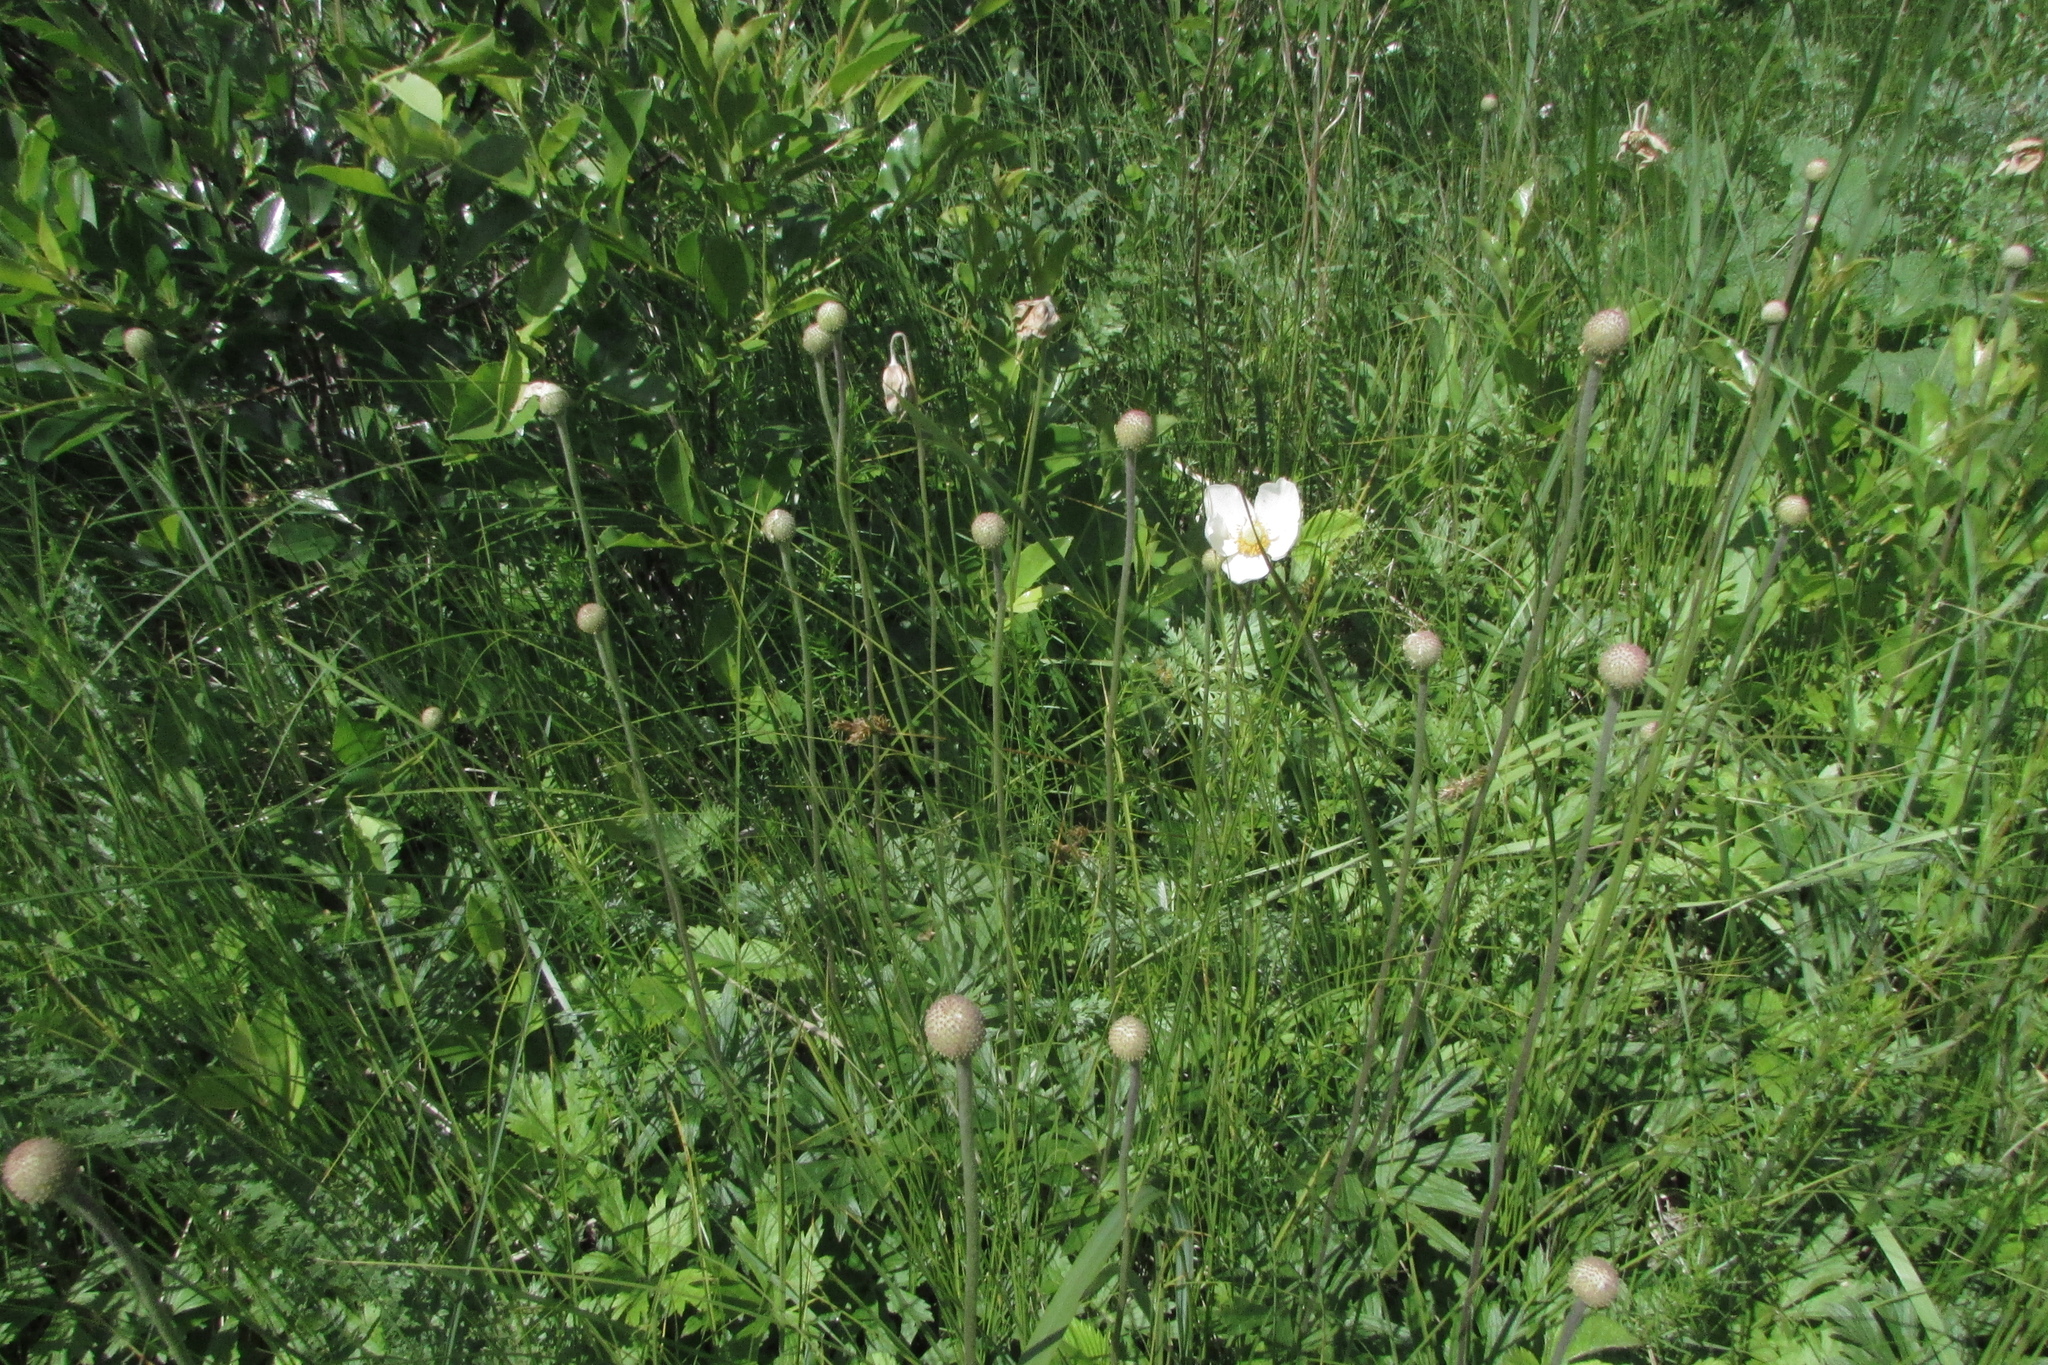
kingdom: Plantae
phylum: Tracheophyta
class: Magnoliopsida
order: Ranunculales
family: Ranunculaceae
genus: Anemone
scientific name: Anemone sylvestris
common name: Snowdrop anemone
